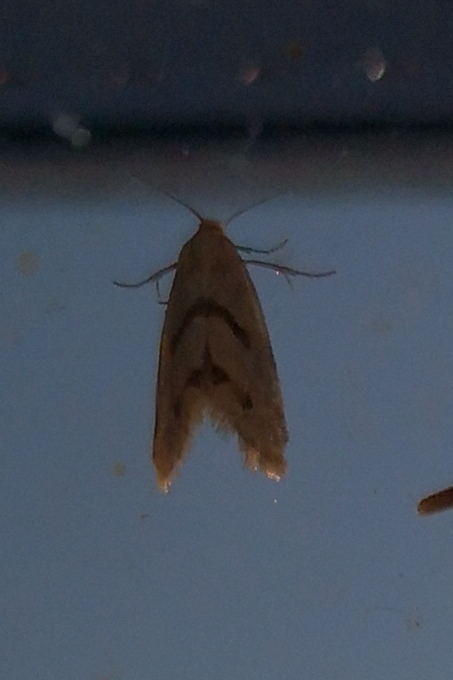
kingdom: Animalia
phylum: Arthropoda
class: Insecta
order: Lepidoptera
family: Tortricidae
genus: Aethes
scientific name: Aethes smeathmanniana
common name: Yarrow conch
